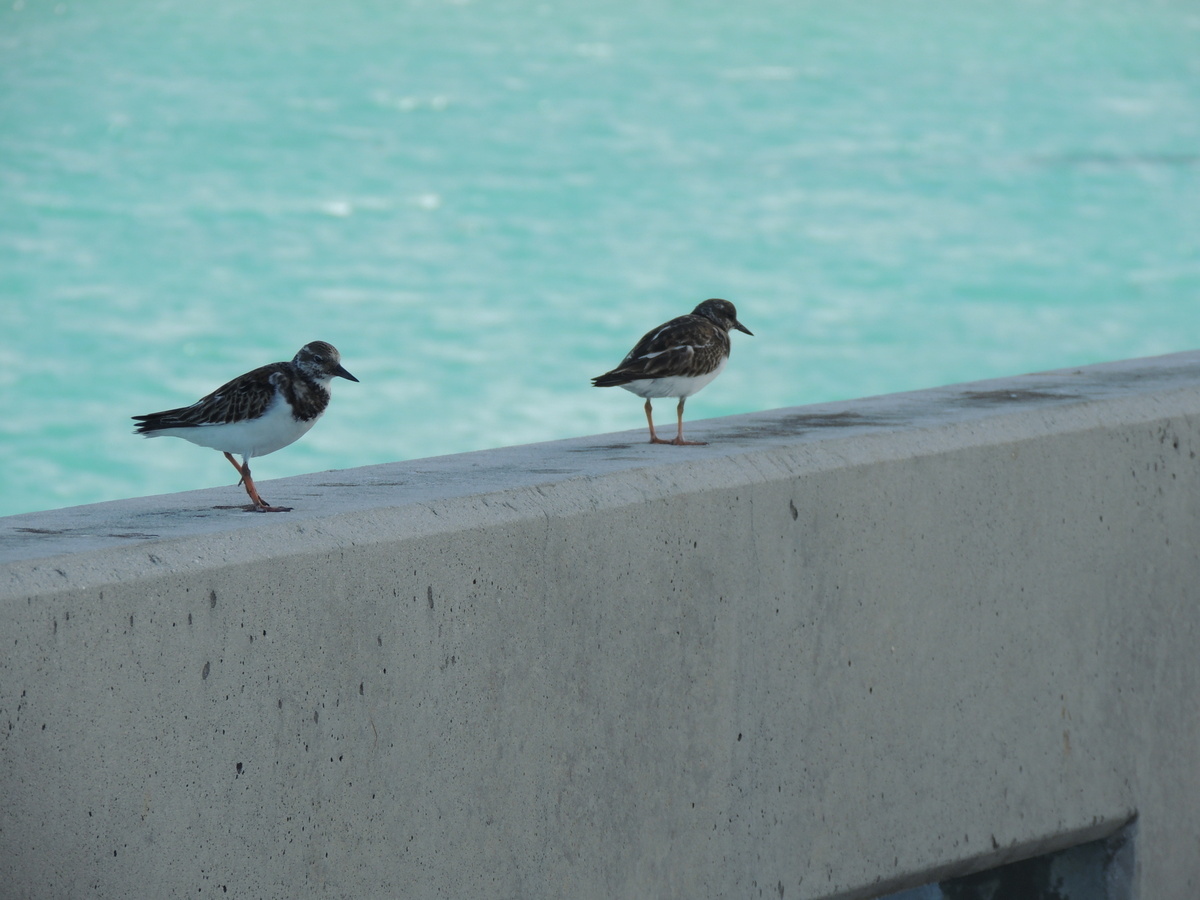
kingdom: Animalia
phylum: Chordata
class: Aves
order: Charadriiformes
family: Scolopacidae
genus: Arenaria
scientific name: Arenaria interpres
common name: Ruddy turnstone
